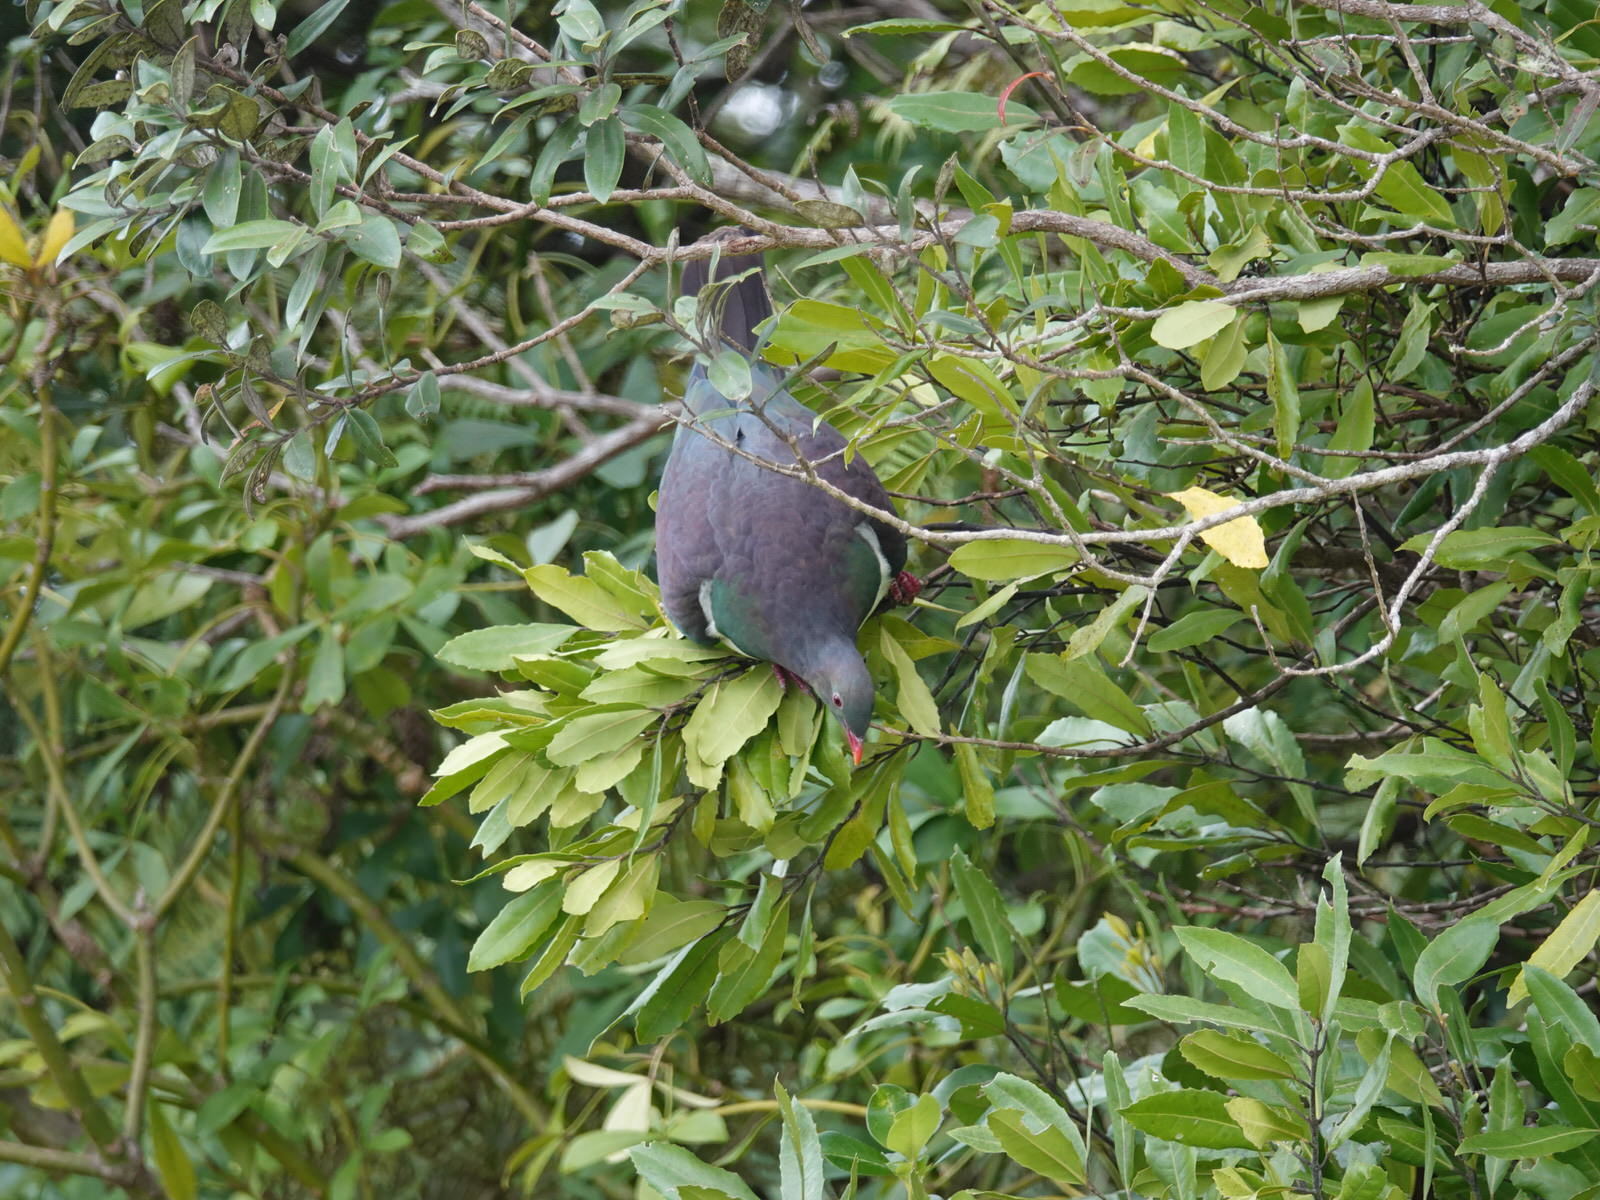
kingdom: Animalia
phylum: Chordata
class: Aves
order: Columbiformes
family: Columbidae
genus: Hemiphaga
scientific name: Hemiphaga novaeseelandiae
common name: New zealand pigeon
